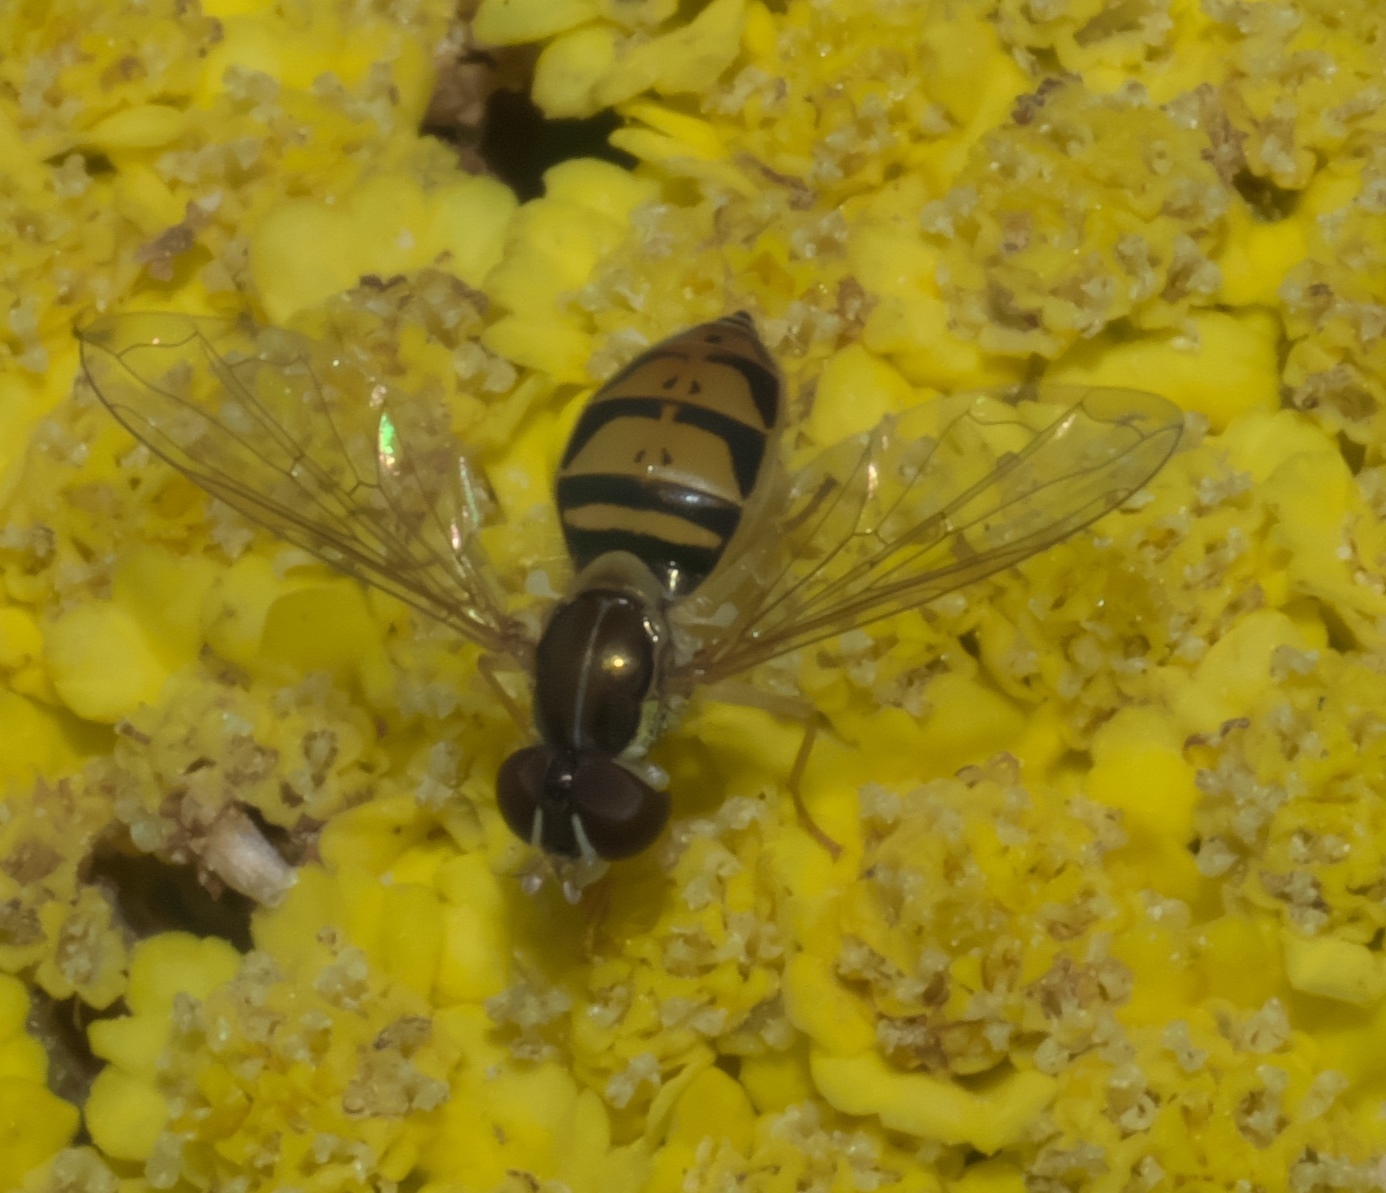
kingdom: Animalia
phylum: Arthropoda
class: Insecta
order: Diptera
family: Syrphidae
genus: Toxomerus
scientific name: Toxomerus marginatus
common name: Syrphid fly
